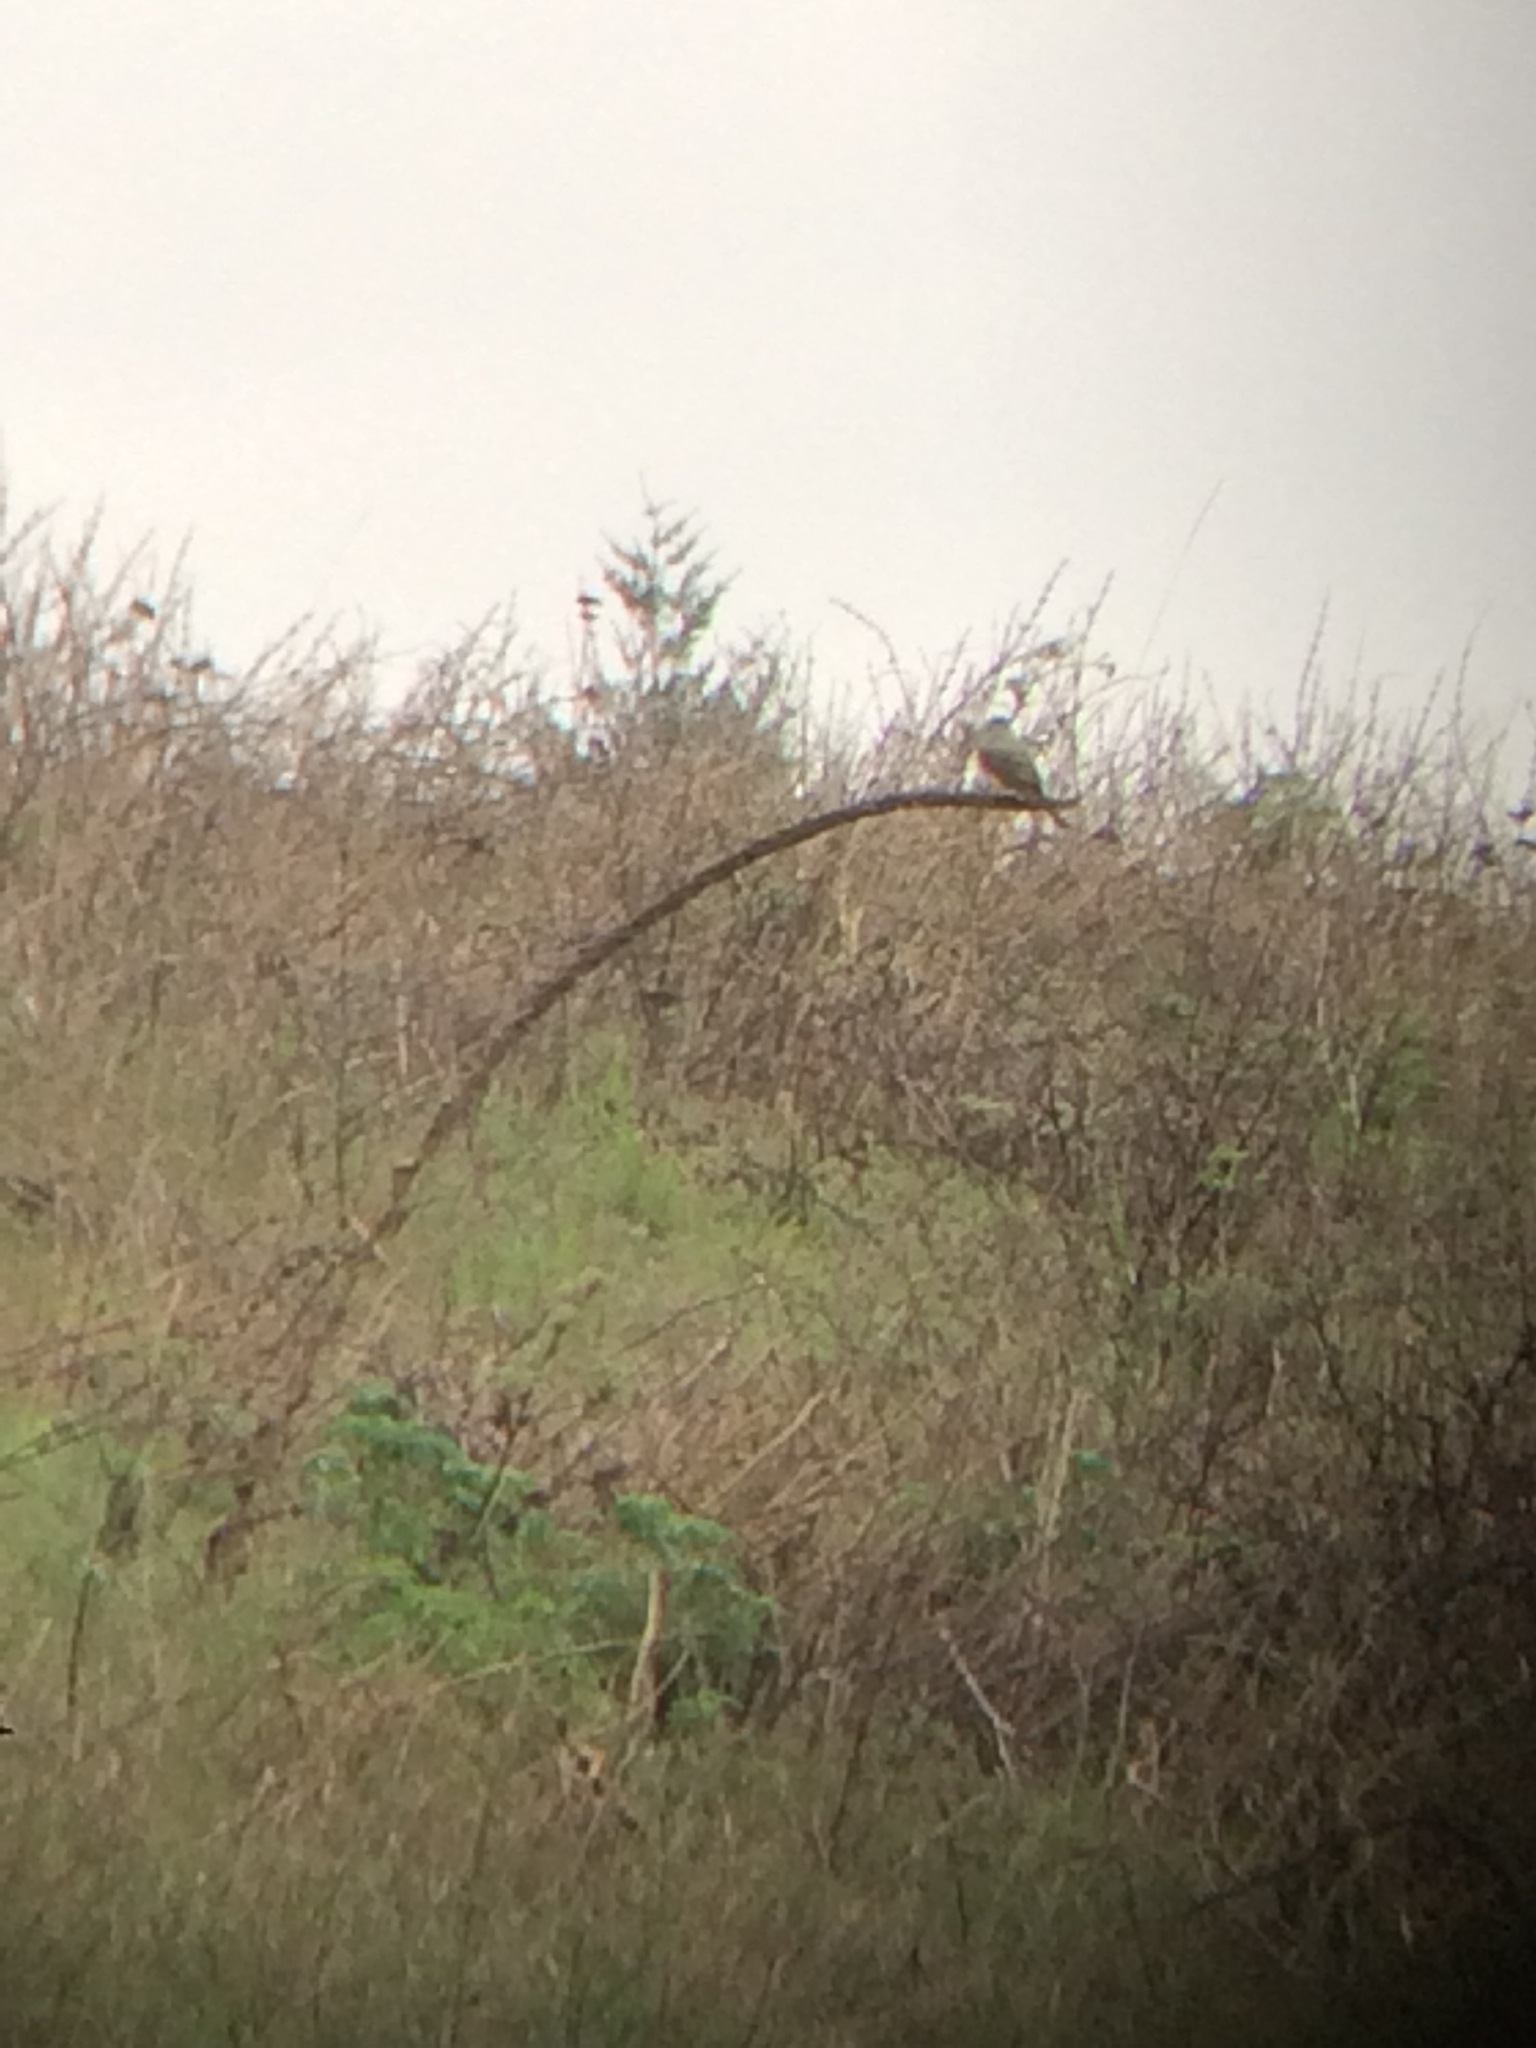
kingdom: Animalia
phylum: Chordata
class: Aves
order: Passeriformes
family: Tyrannidae
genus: Tyrannus
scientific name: Tyrannus verticalis
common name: Western kingbird
